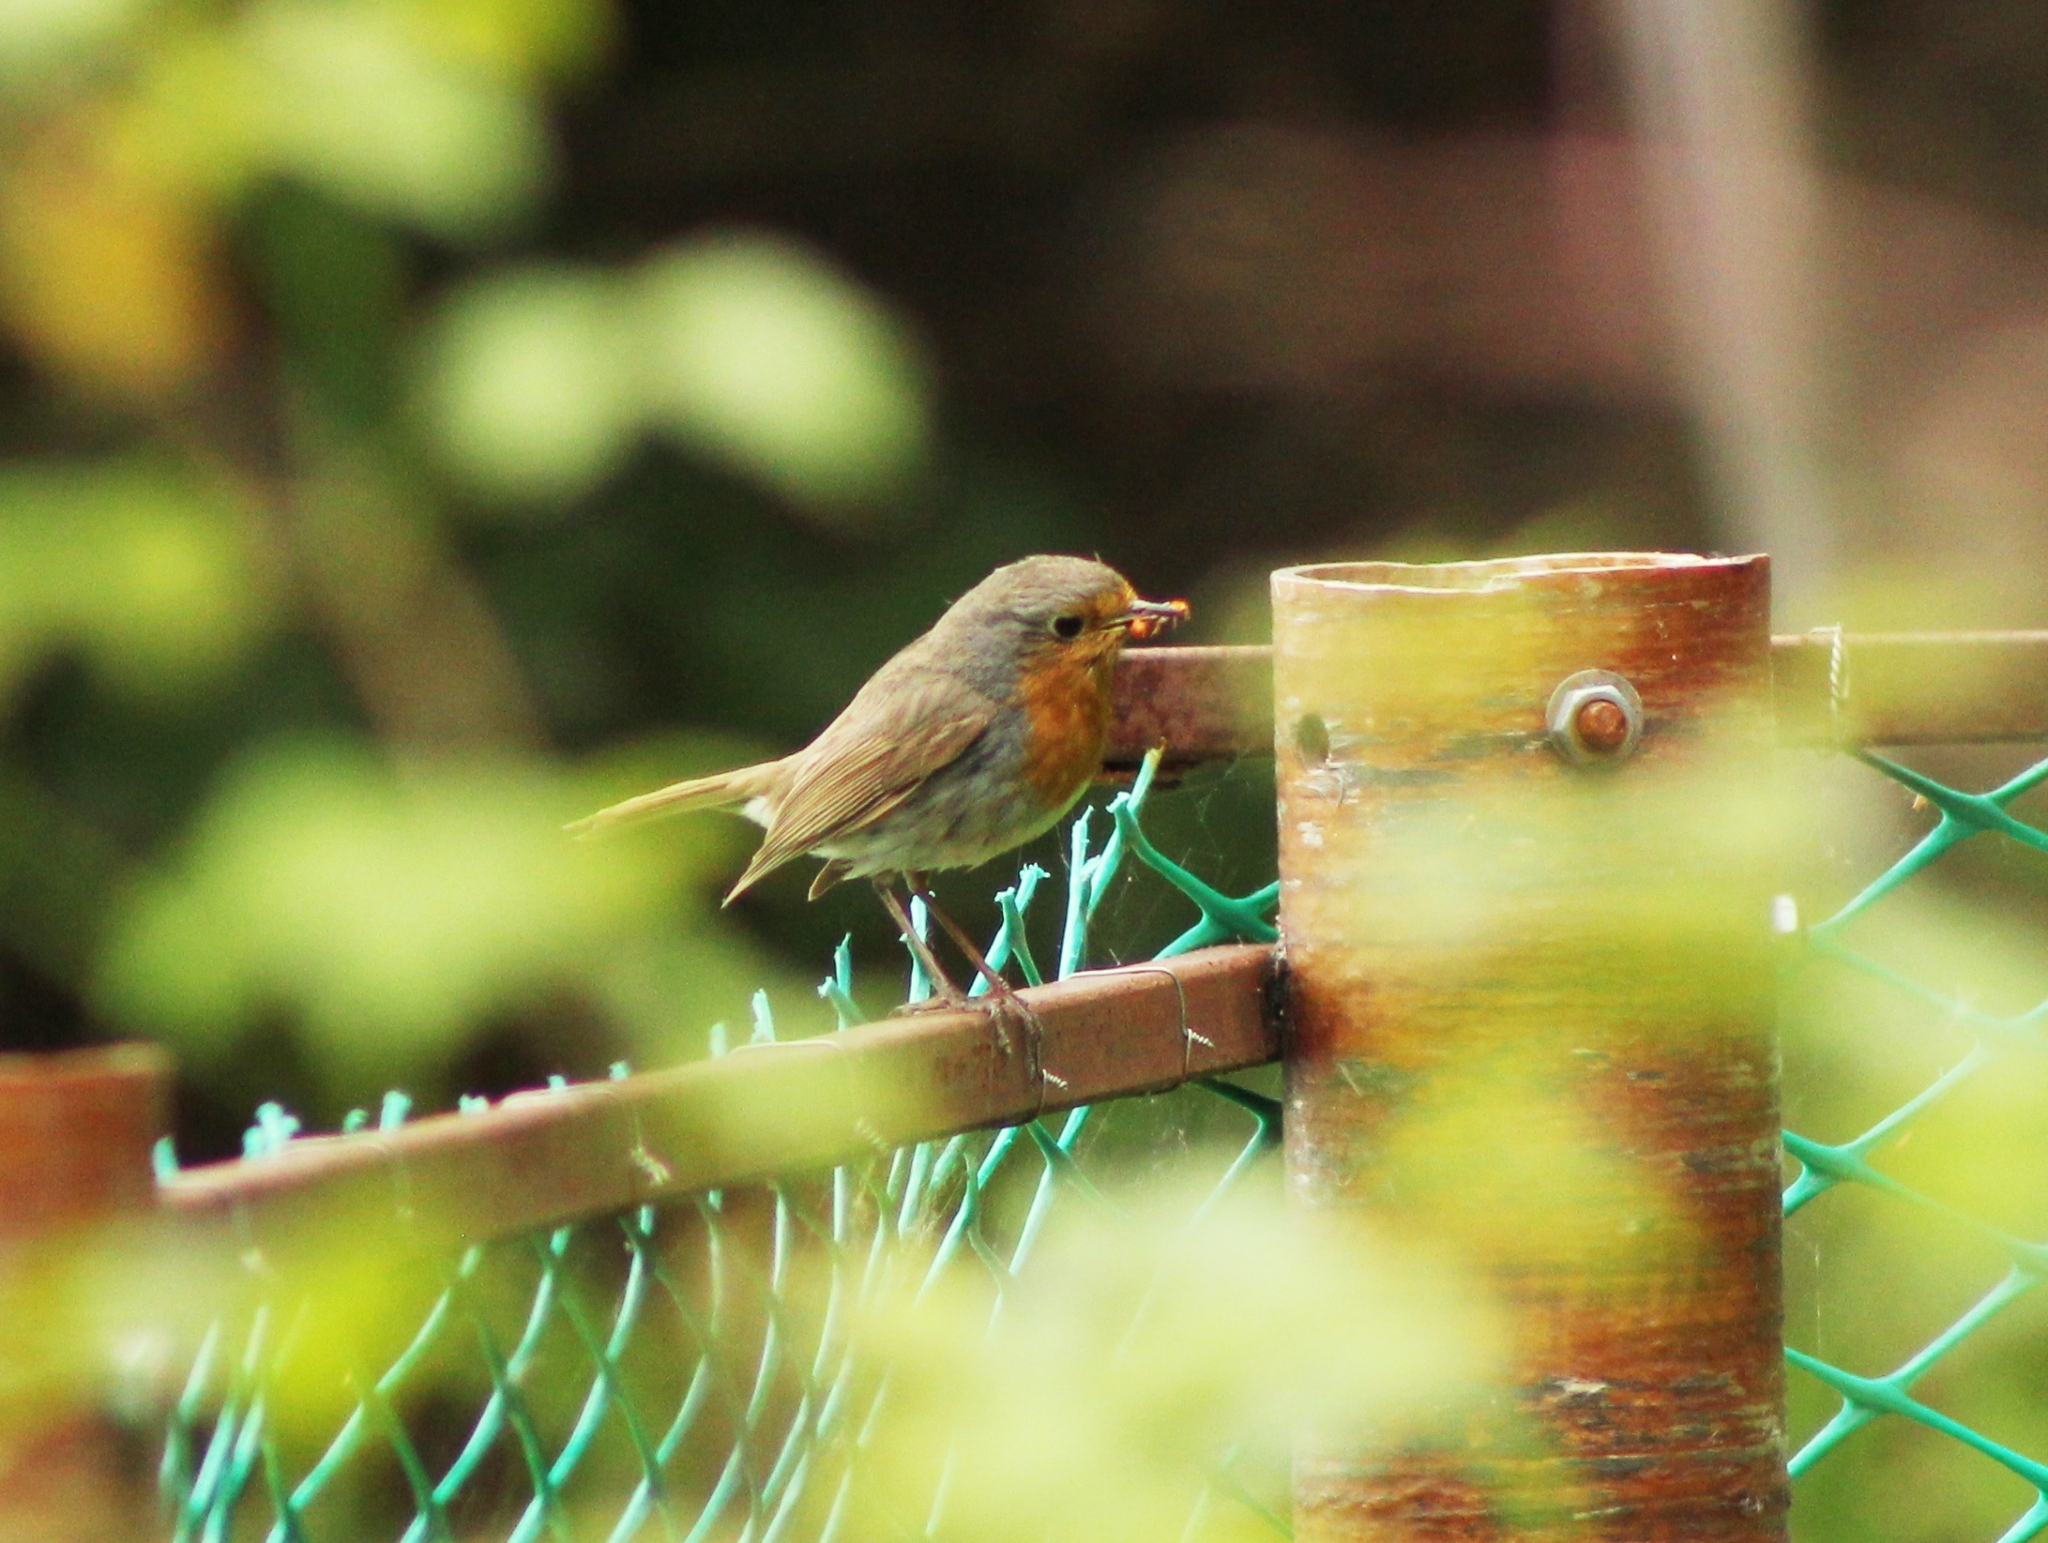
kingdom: Animalia
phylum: Chordata
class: Aves
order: Passeriformes
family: Muscicapidae
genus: Erithacus
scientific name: Erithacus rubecula
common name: European robin
